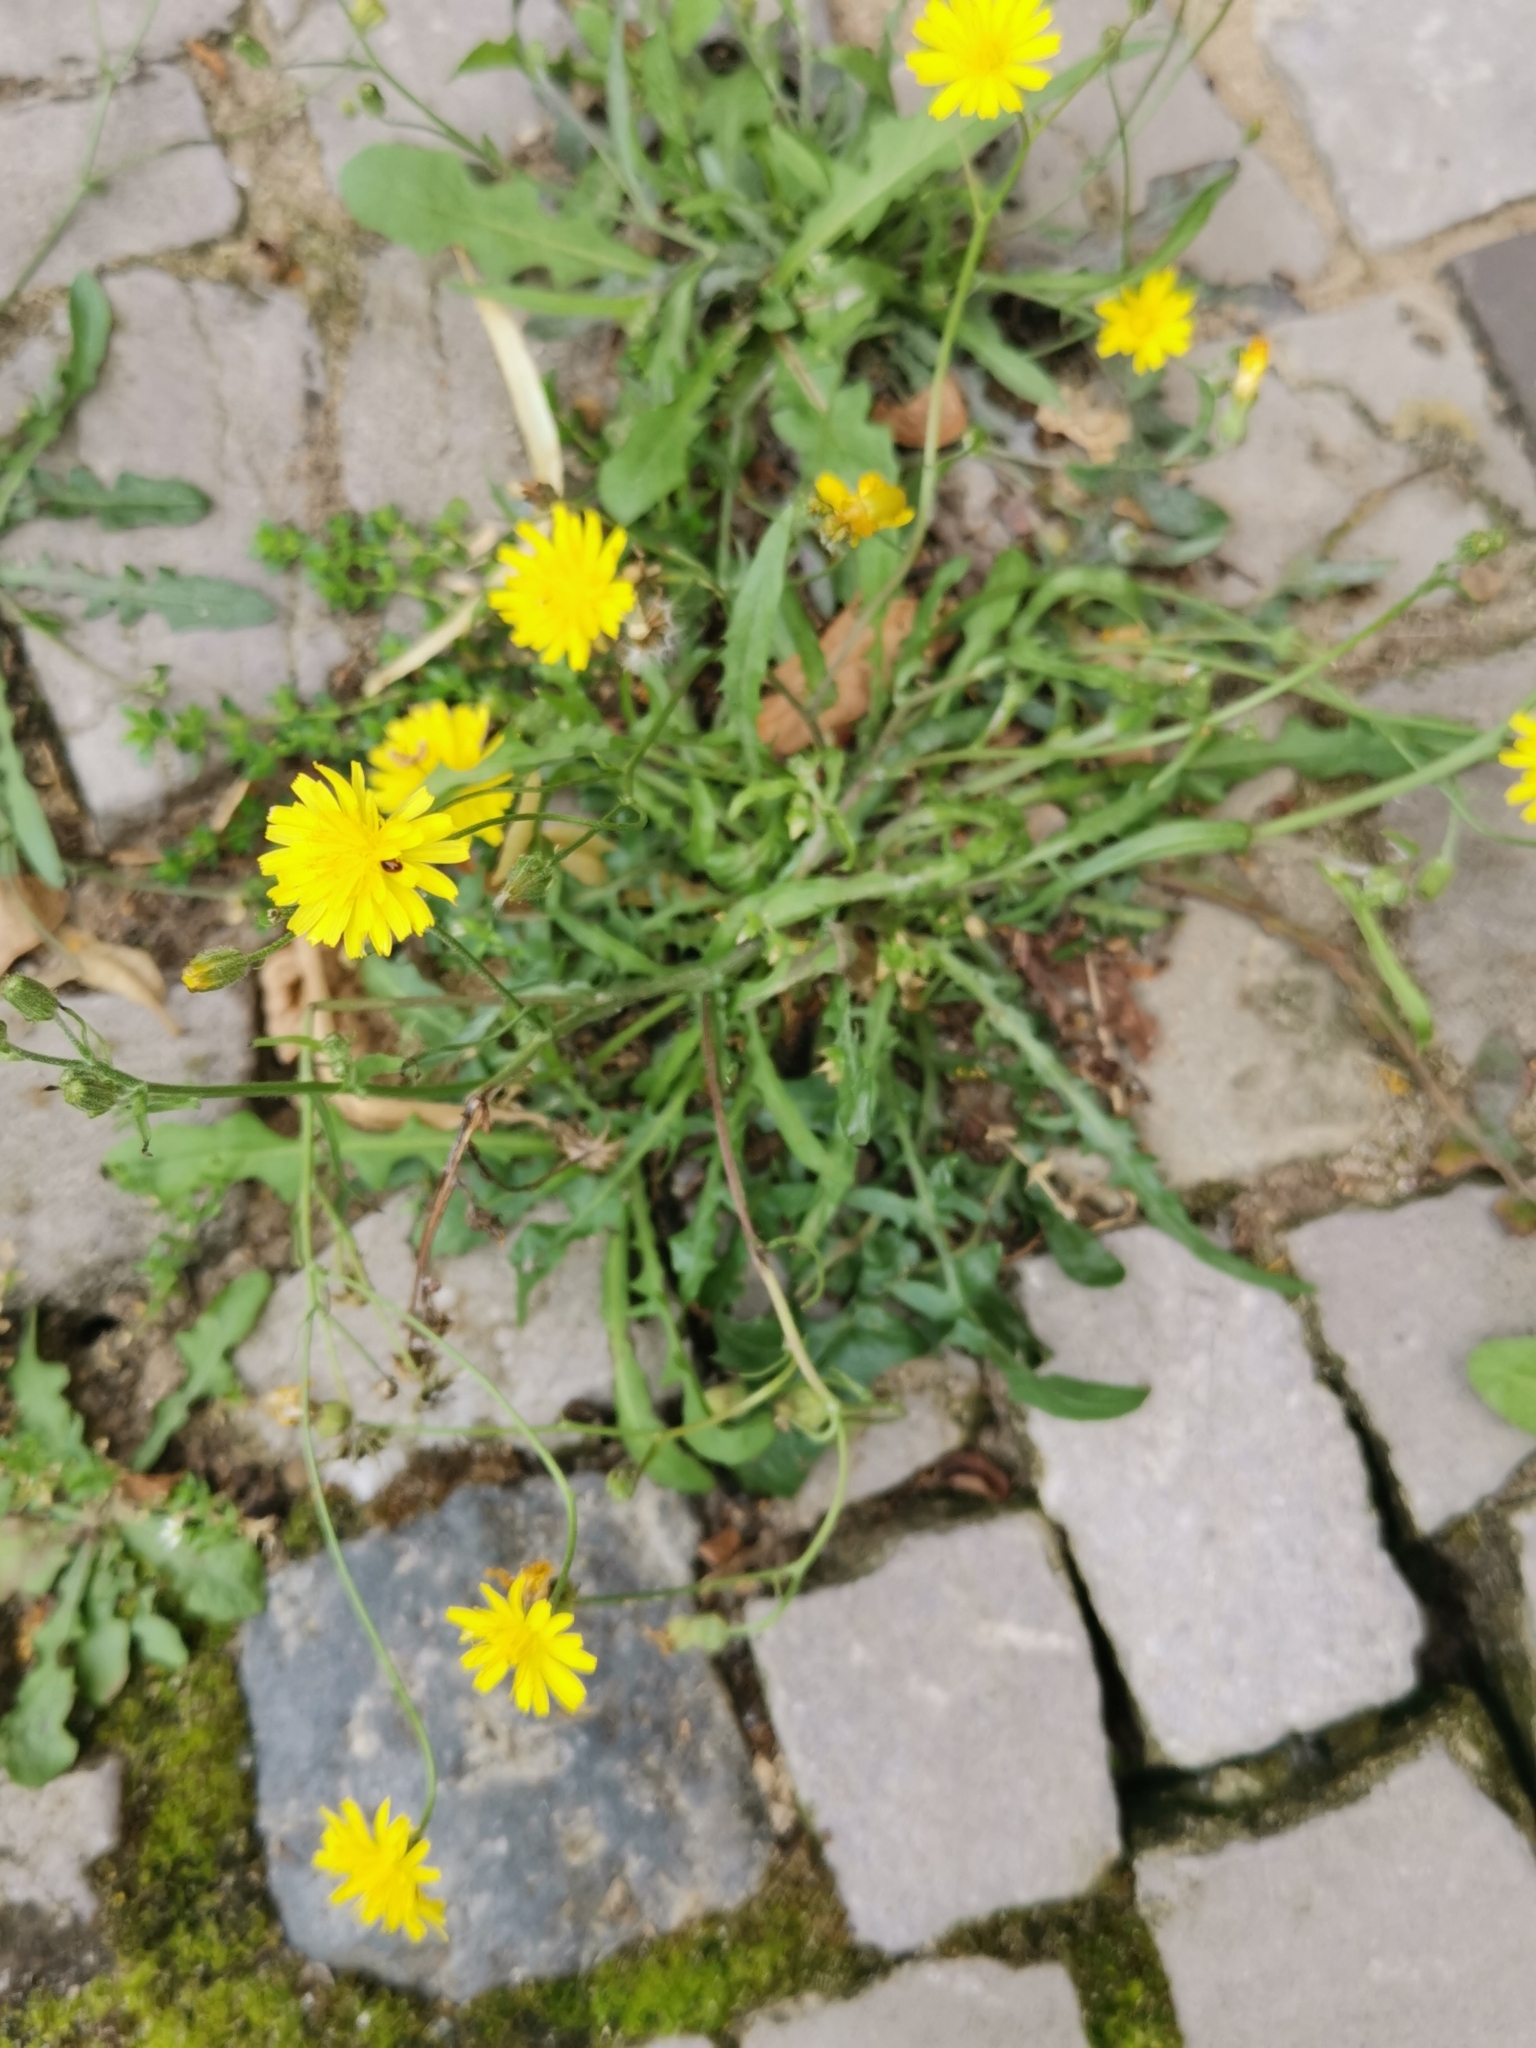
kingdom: Plantae
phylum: Tracheophyta
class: Magnoliopsida
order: Asterales
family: Asteraceae
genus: Crepis
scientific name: Crepis capillaris
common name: Smooth hawksbeard
